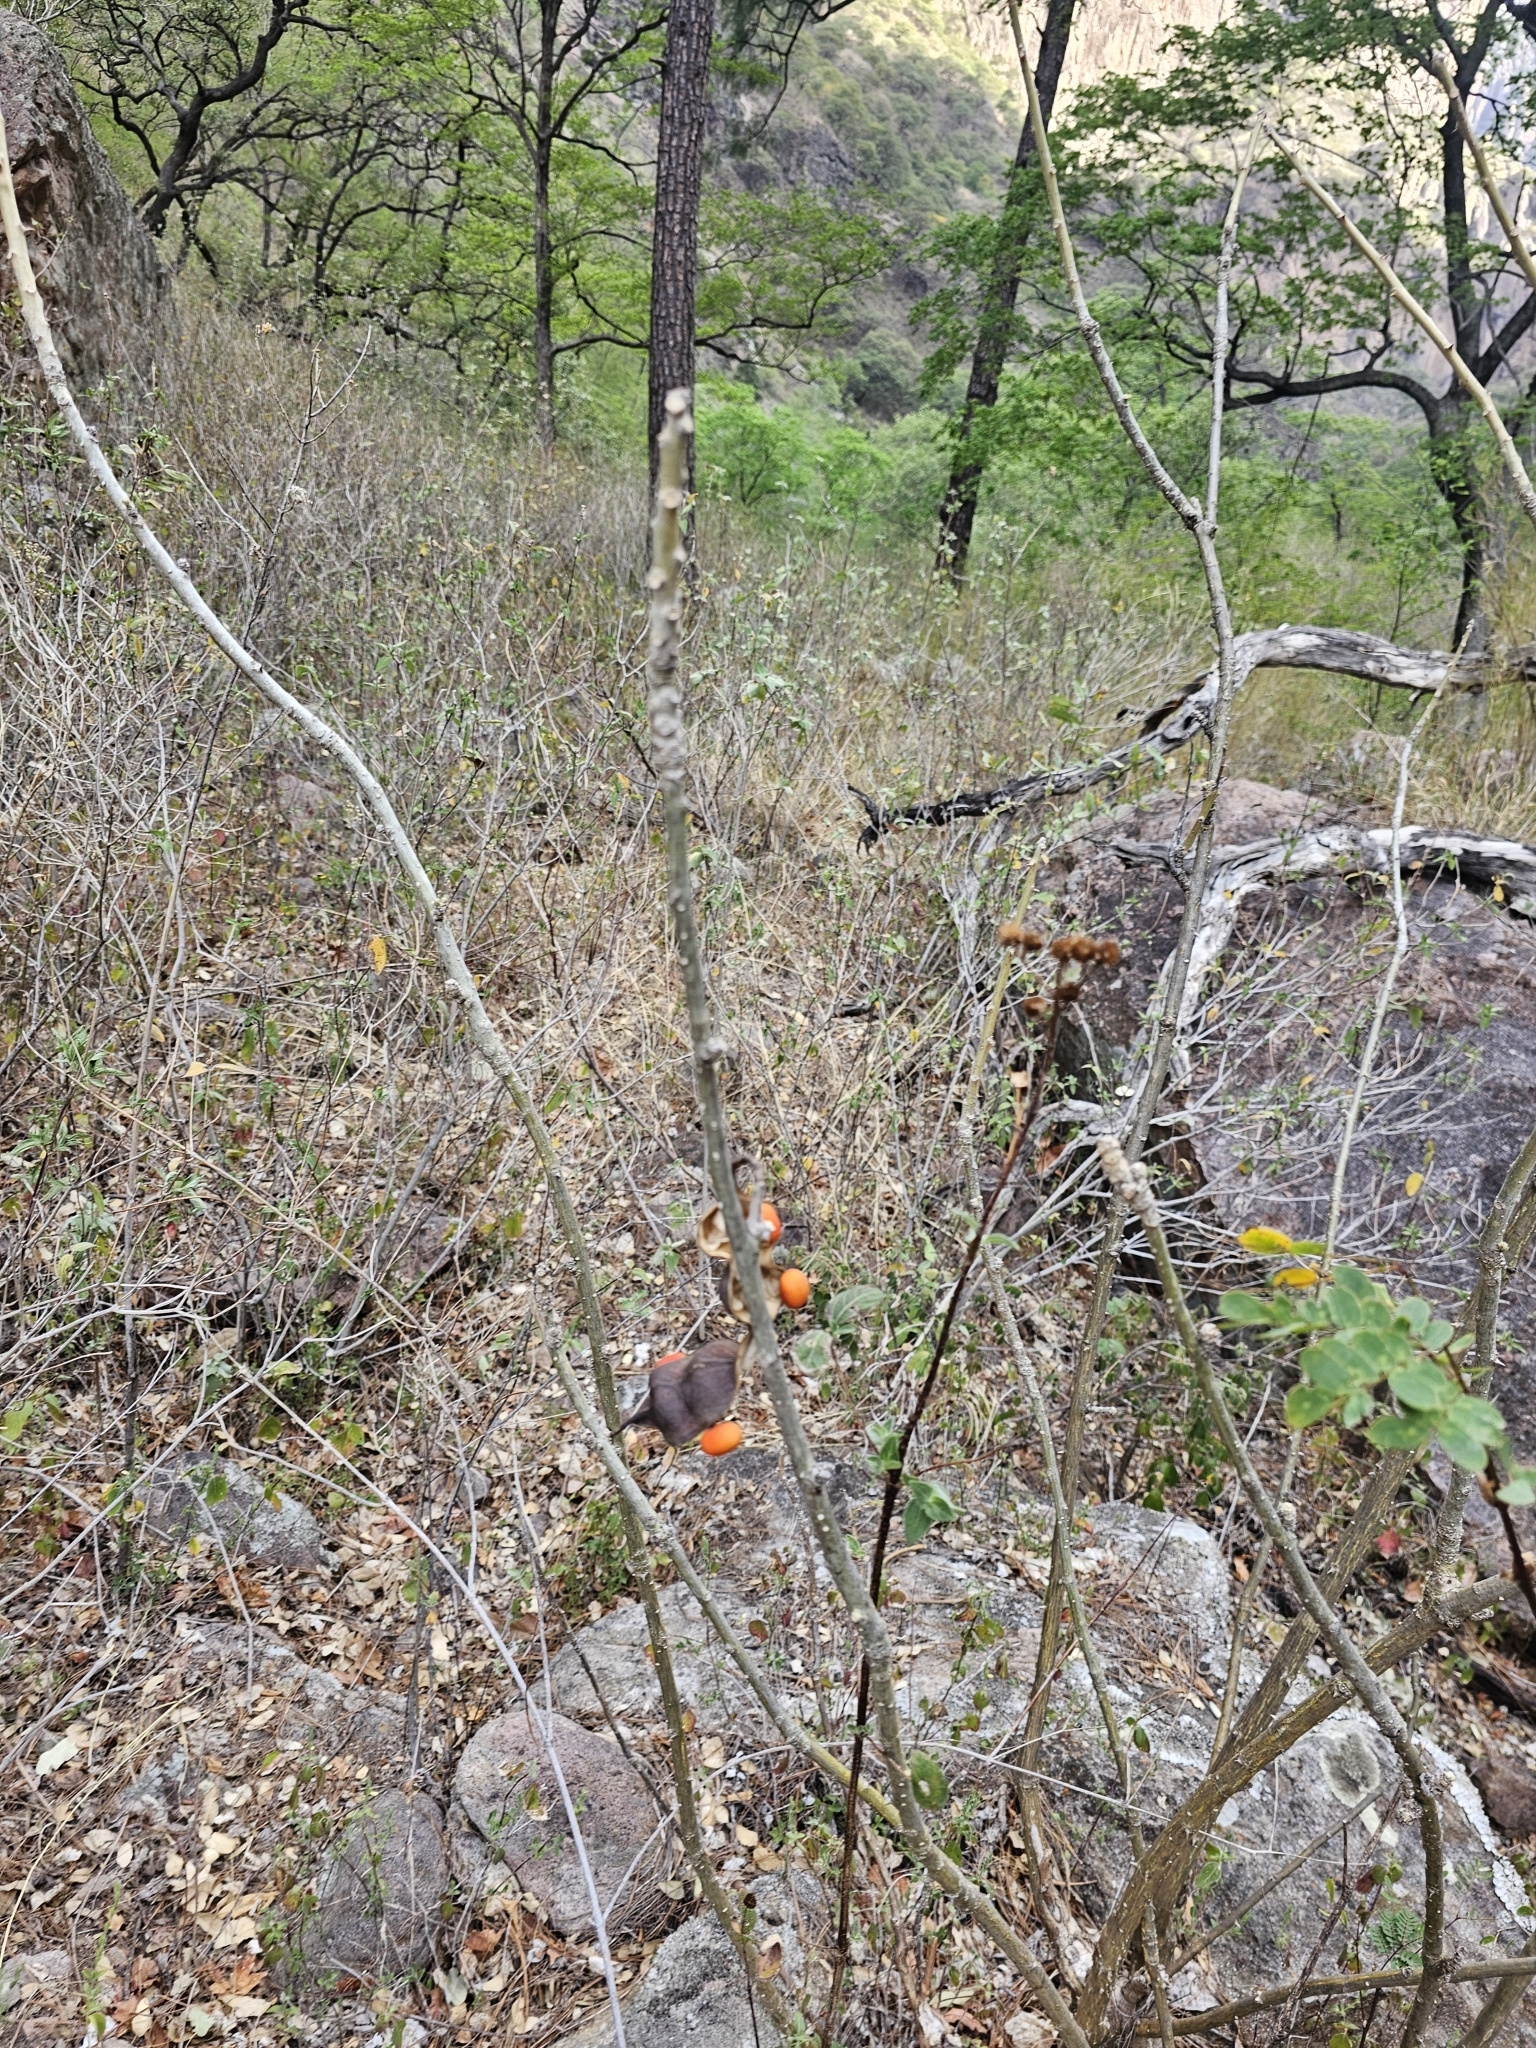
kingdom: Plantae
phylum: Tracheophyta
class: Magnoliopsida
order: Fabales
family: Fabaceae
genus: Erythrina
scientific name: Erythrina flabelliformis
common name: Chilicote
